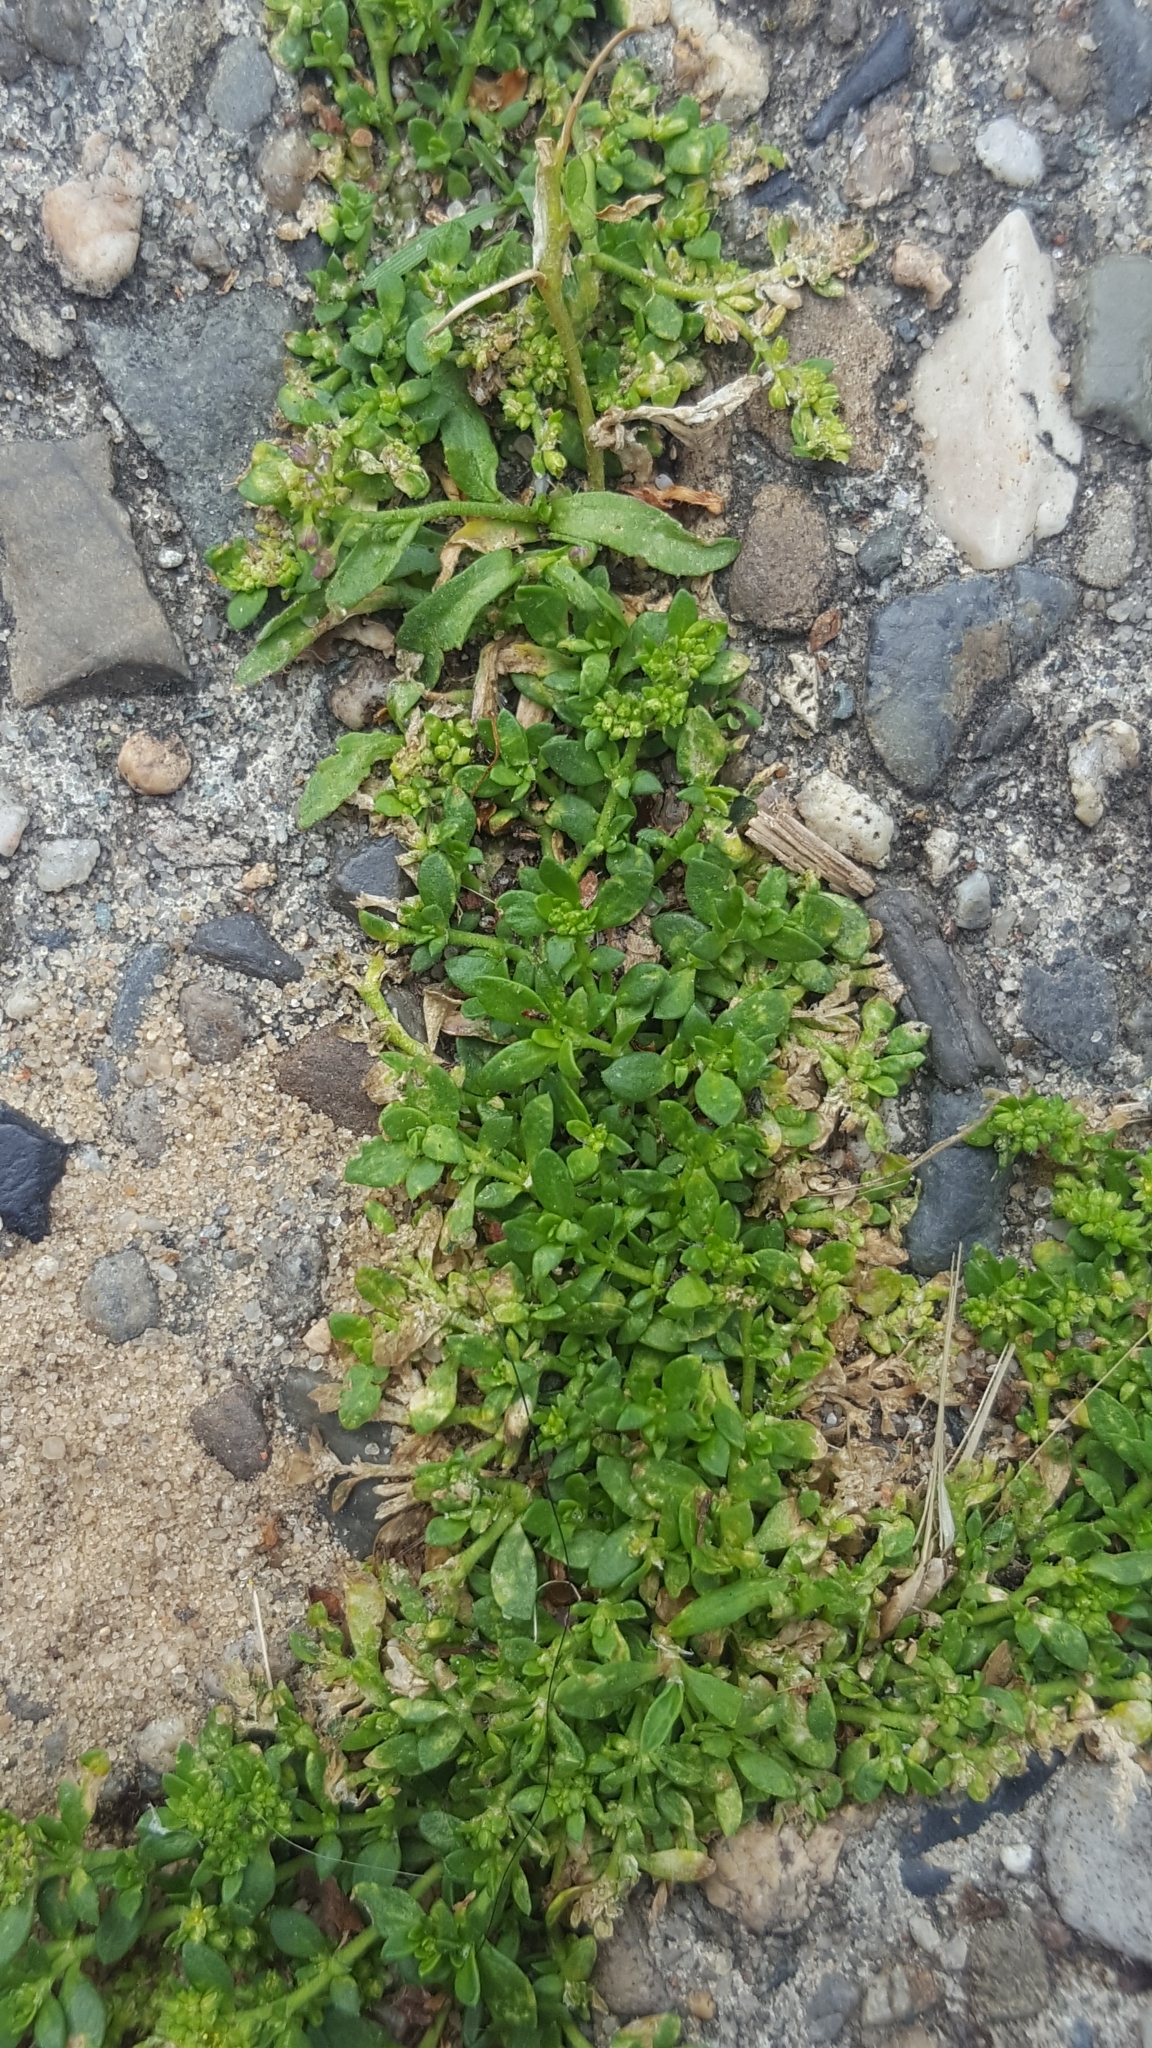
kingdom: Plantae
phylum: Tracheophyta
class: Magnoliopsida
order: Caryophyllales
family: Caryophyllaceae
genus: Herniaria
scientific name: Herniaria glabra
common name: Smooth rupturewort
